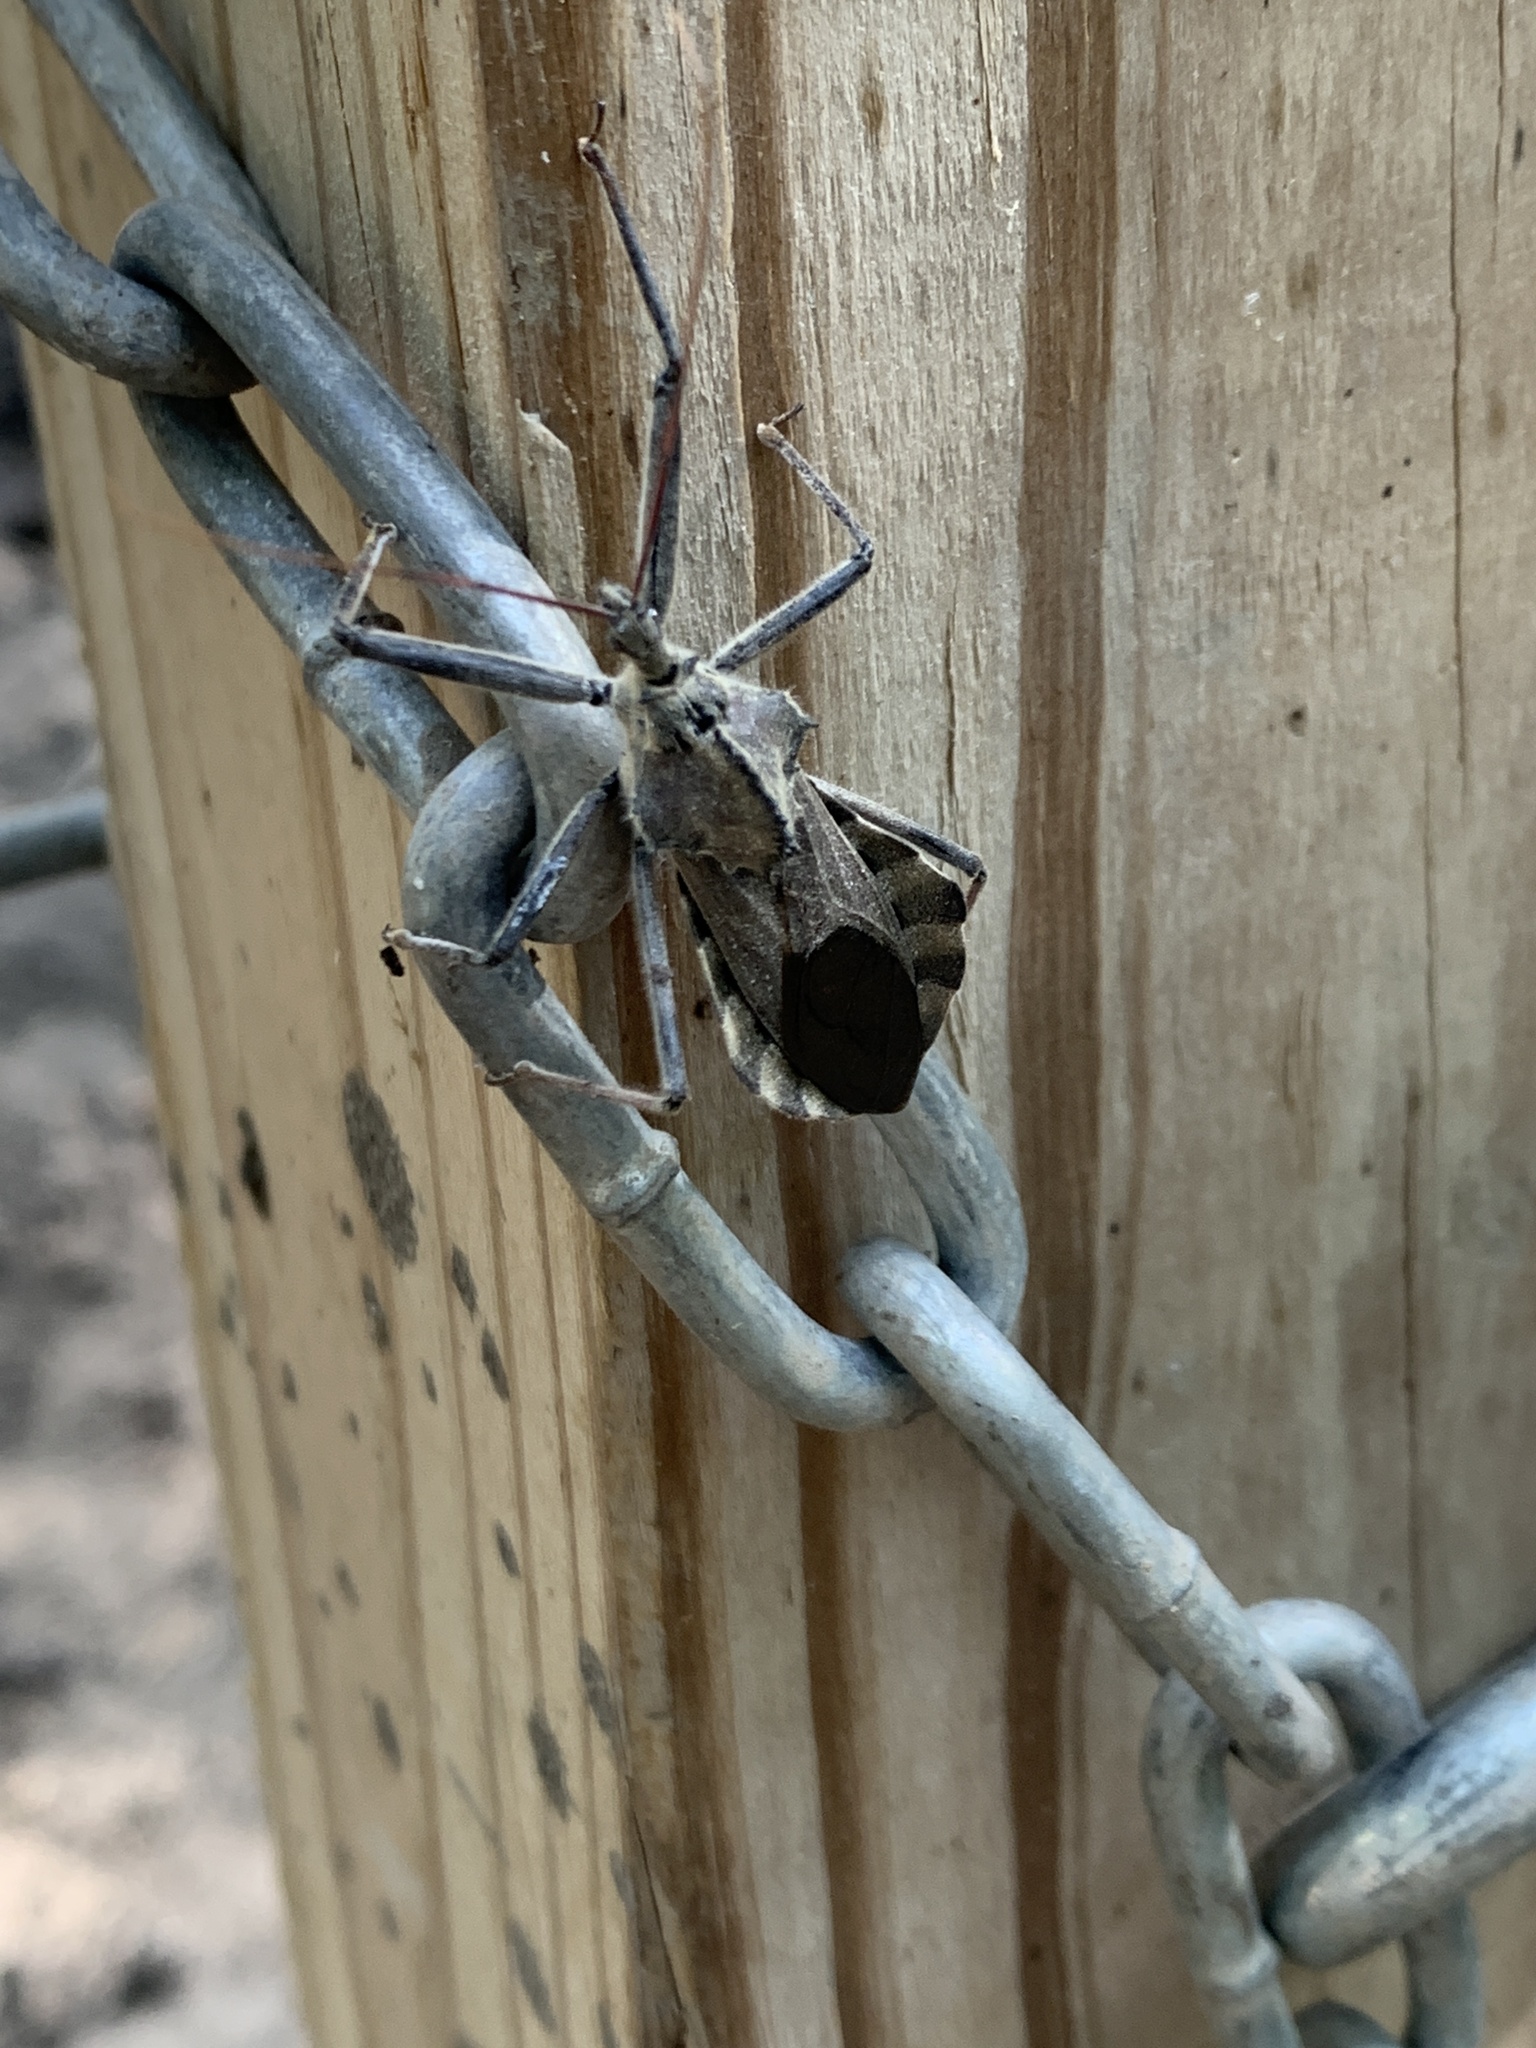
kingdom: Animalia
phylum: Arthropoda
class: Insecta
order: Hemiptera
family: Reduviidae
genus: Arilus
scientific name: Arilus cristatus
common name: North american wheel bug
